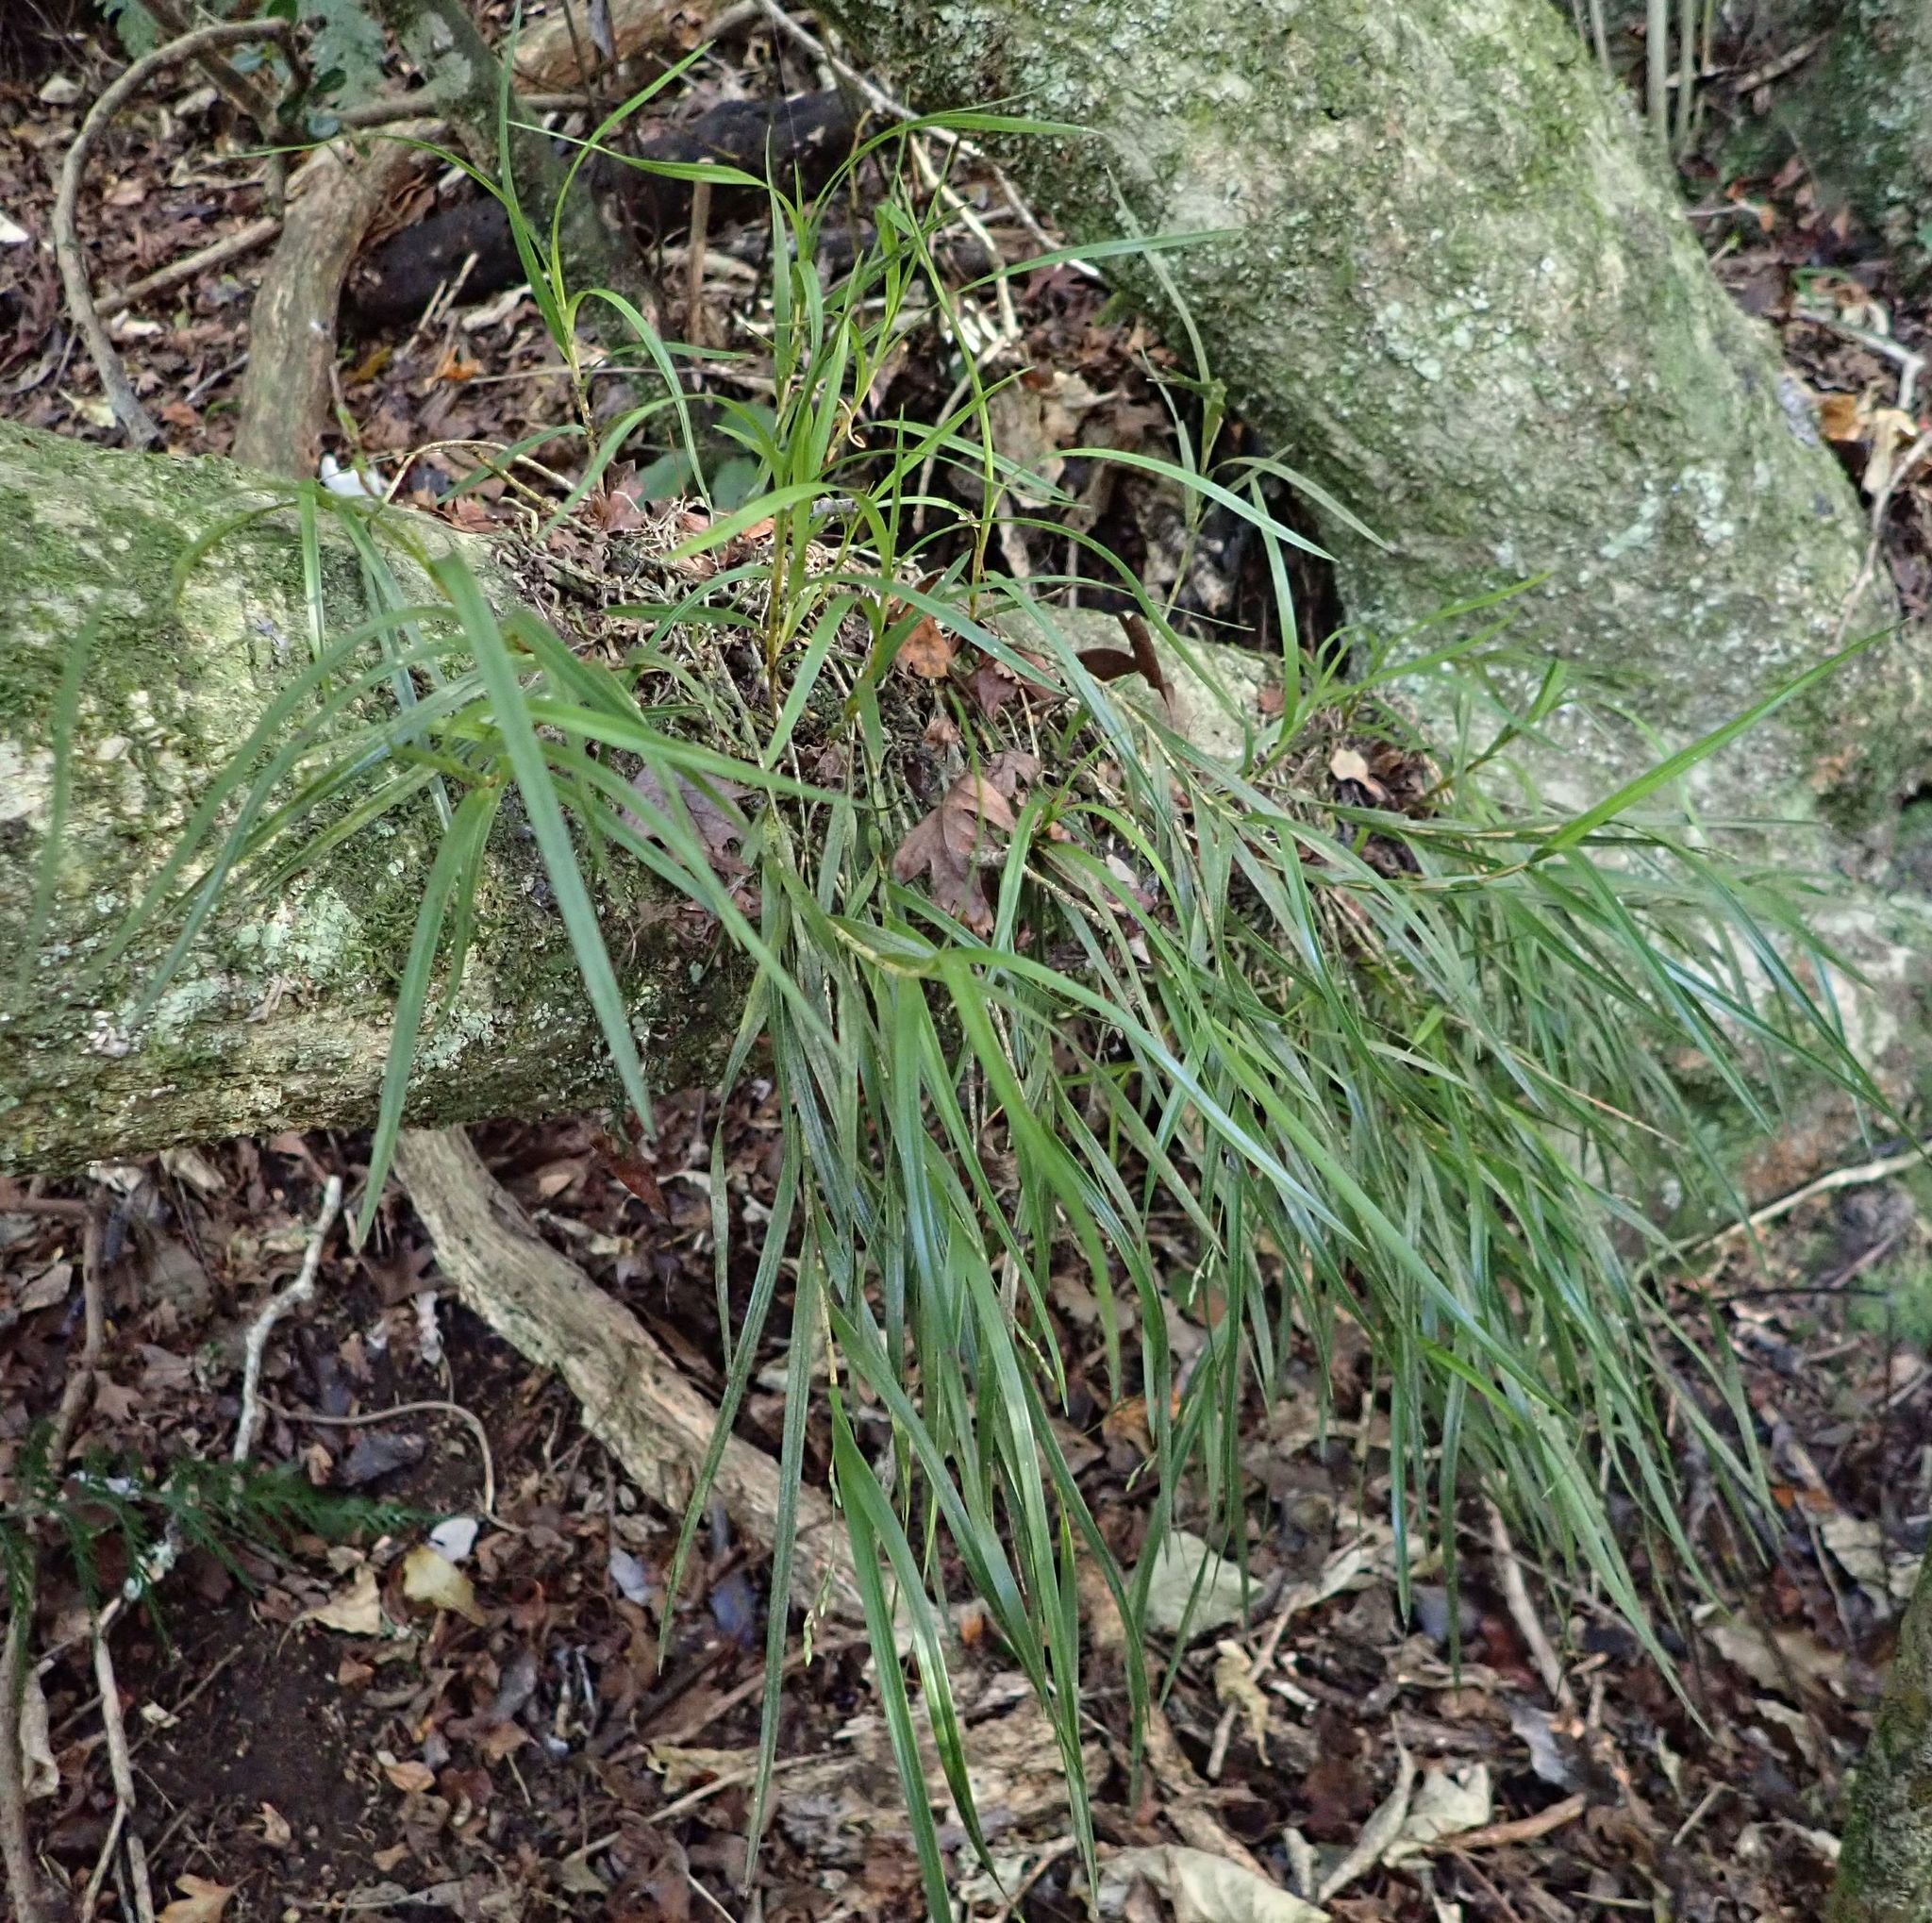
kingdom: Plantae
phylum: Tracheophyta
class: Liliopsida
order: Asparagales
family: Orchidaceae
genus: Earina
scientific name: Earina mucronata
